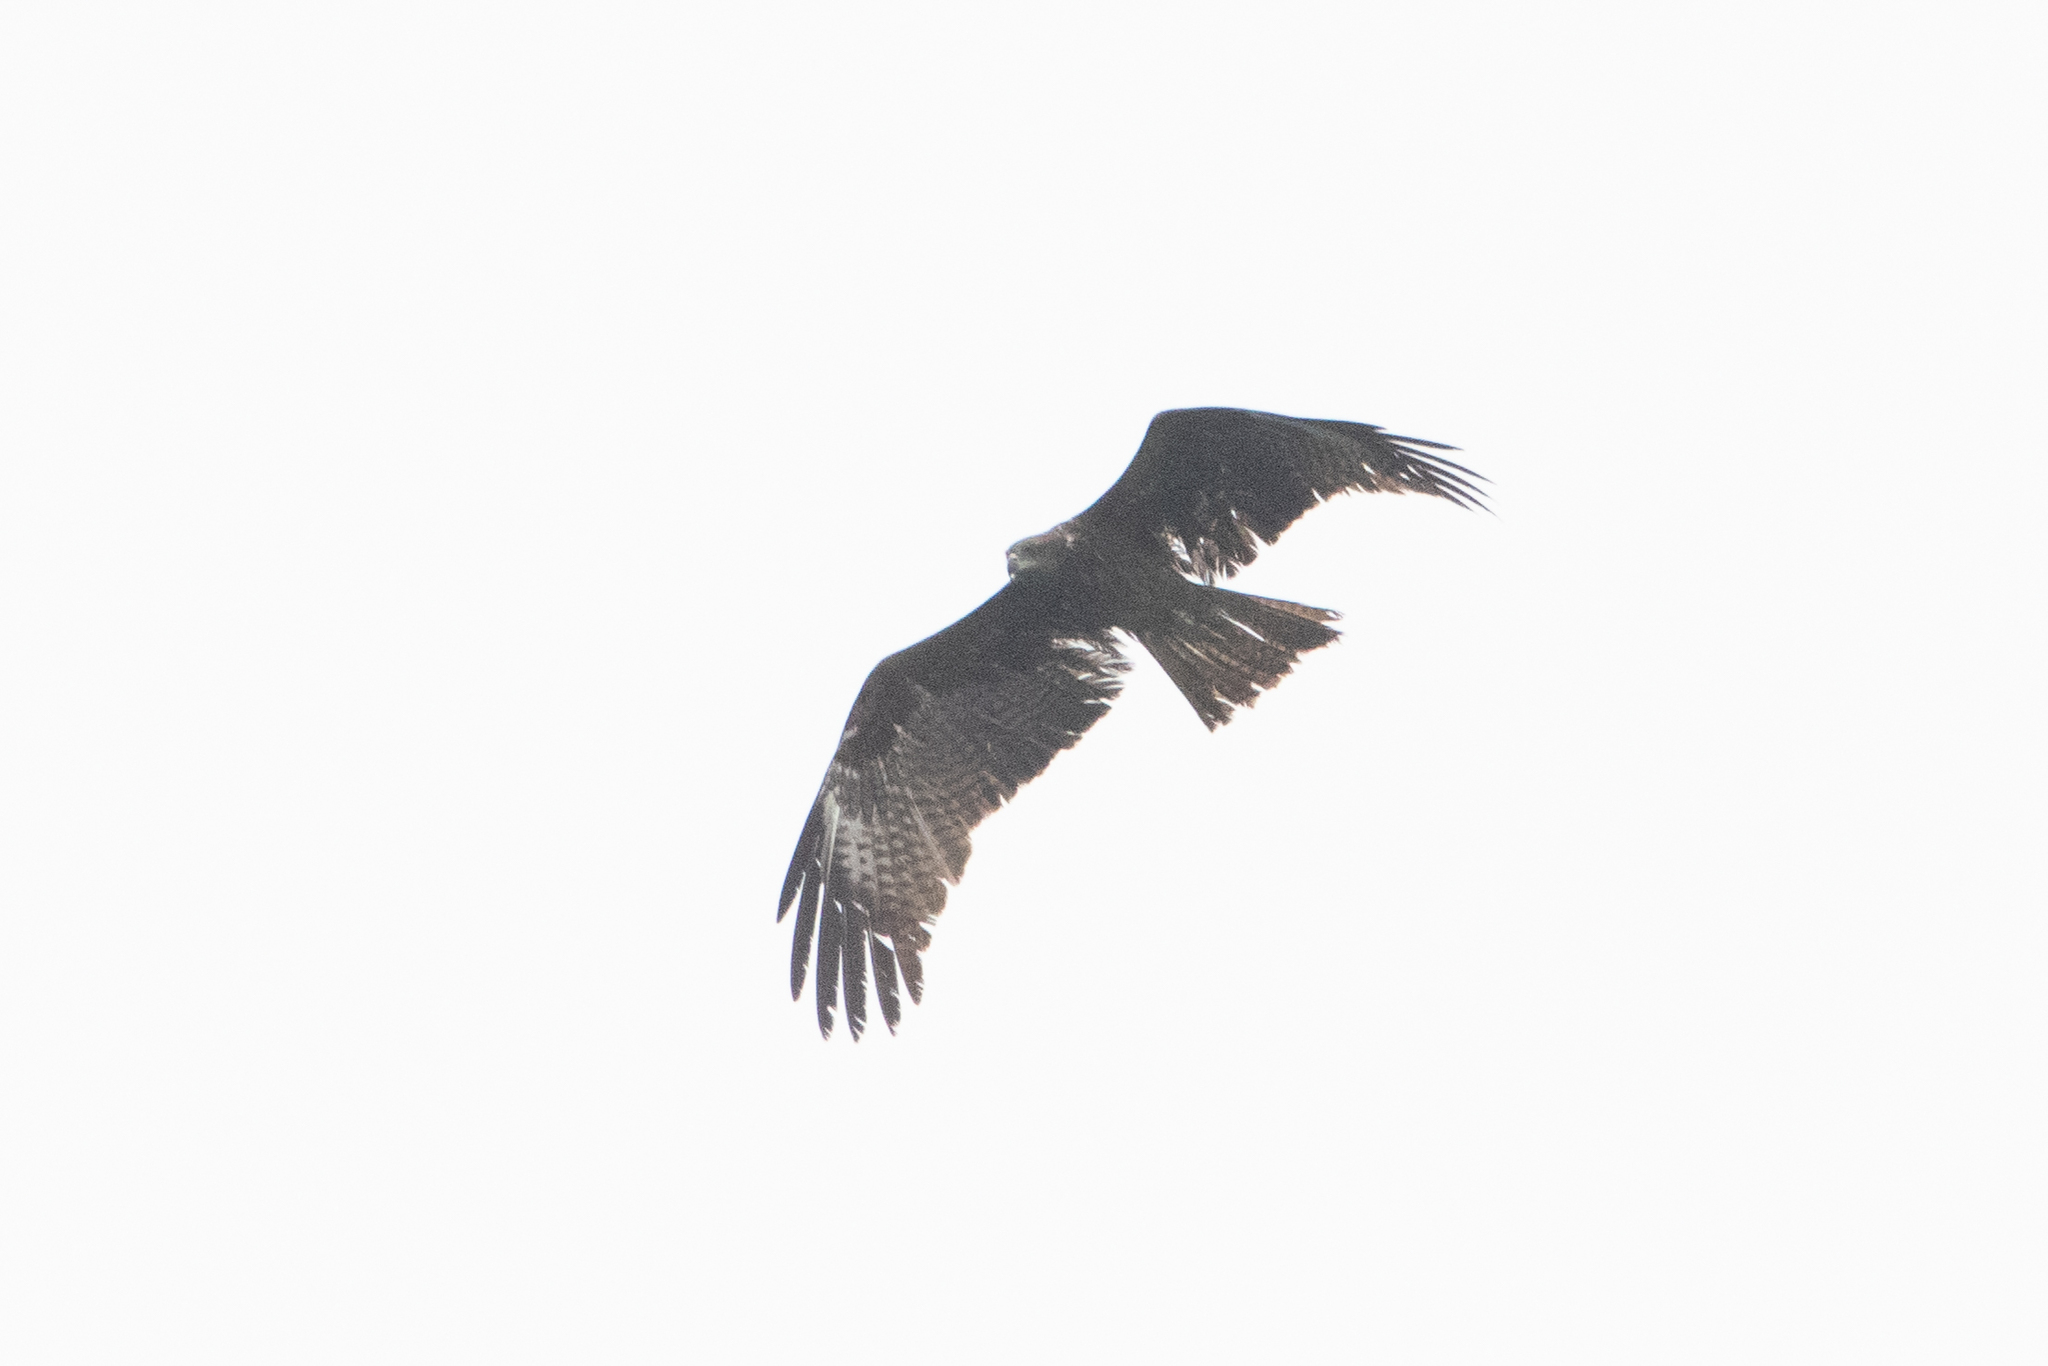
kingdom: Animalia
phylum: Chordata
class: Aves
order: Accipitriformes
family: Accipitridae
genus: Milvus
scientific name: Milvus migrans
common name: Black kite
